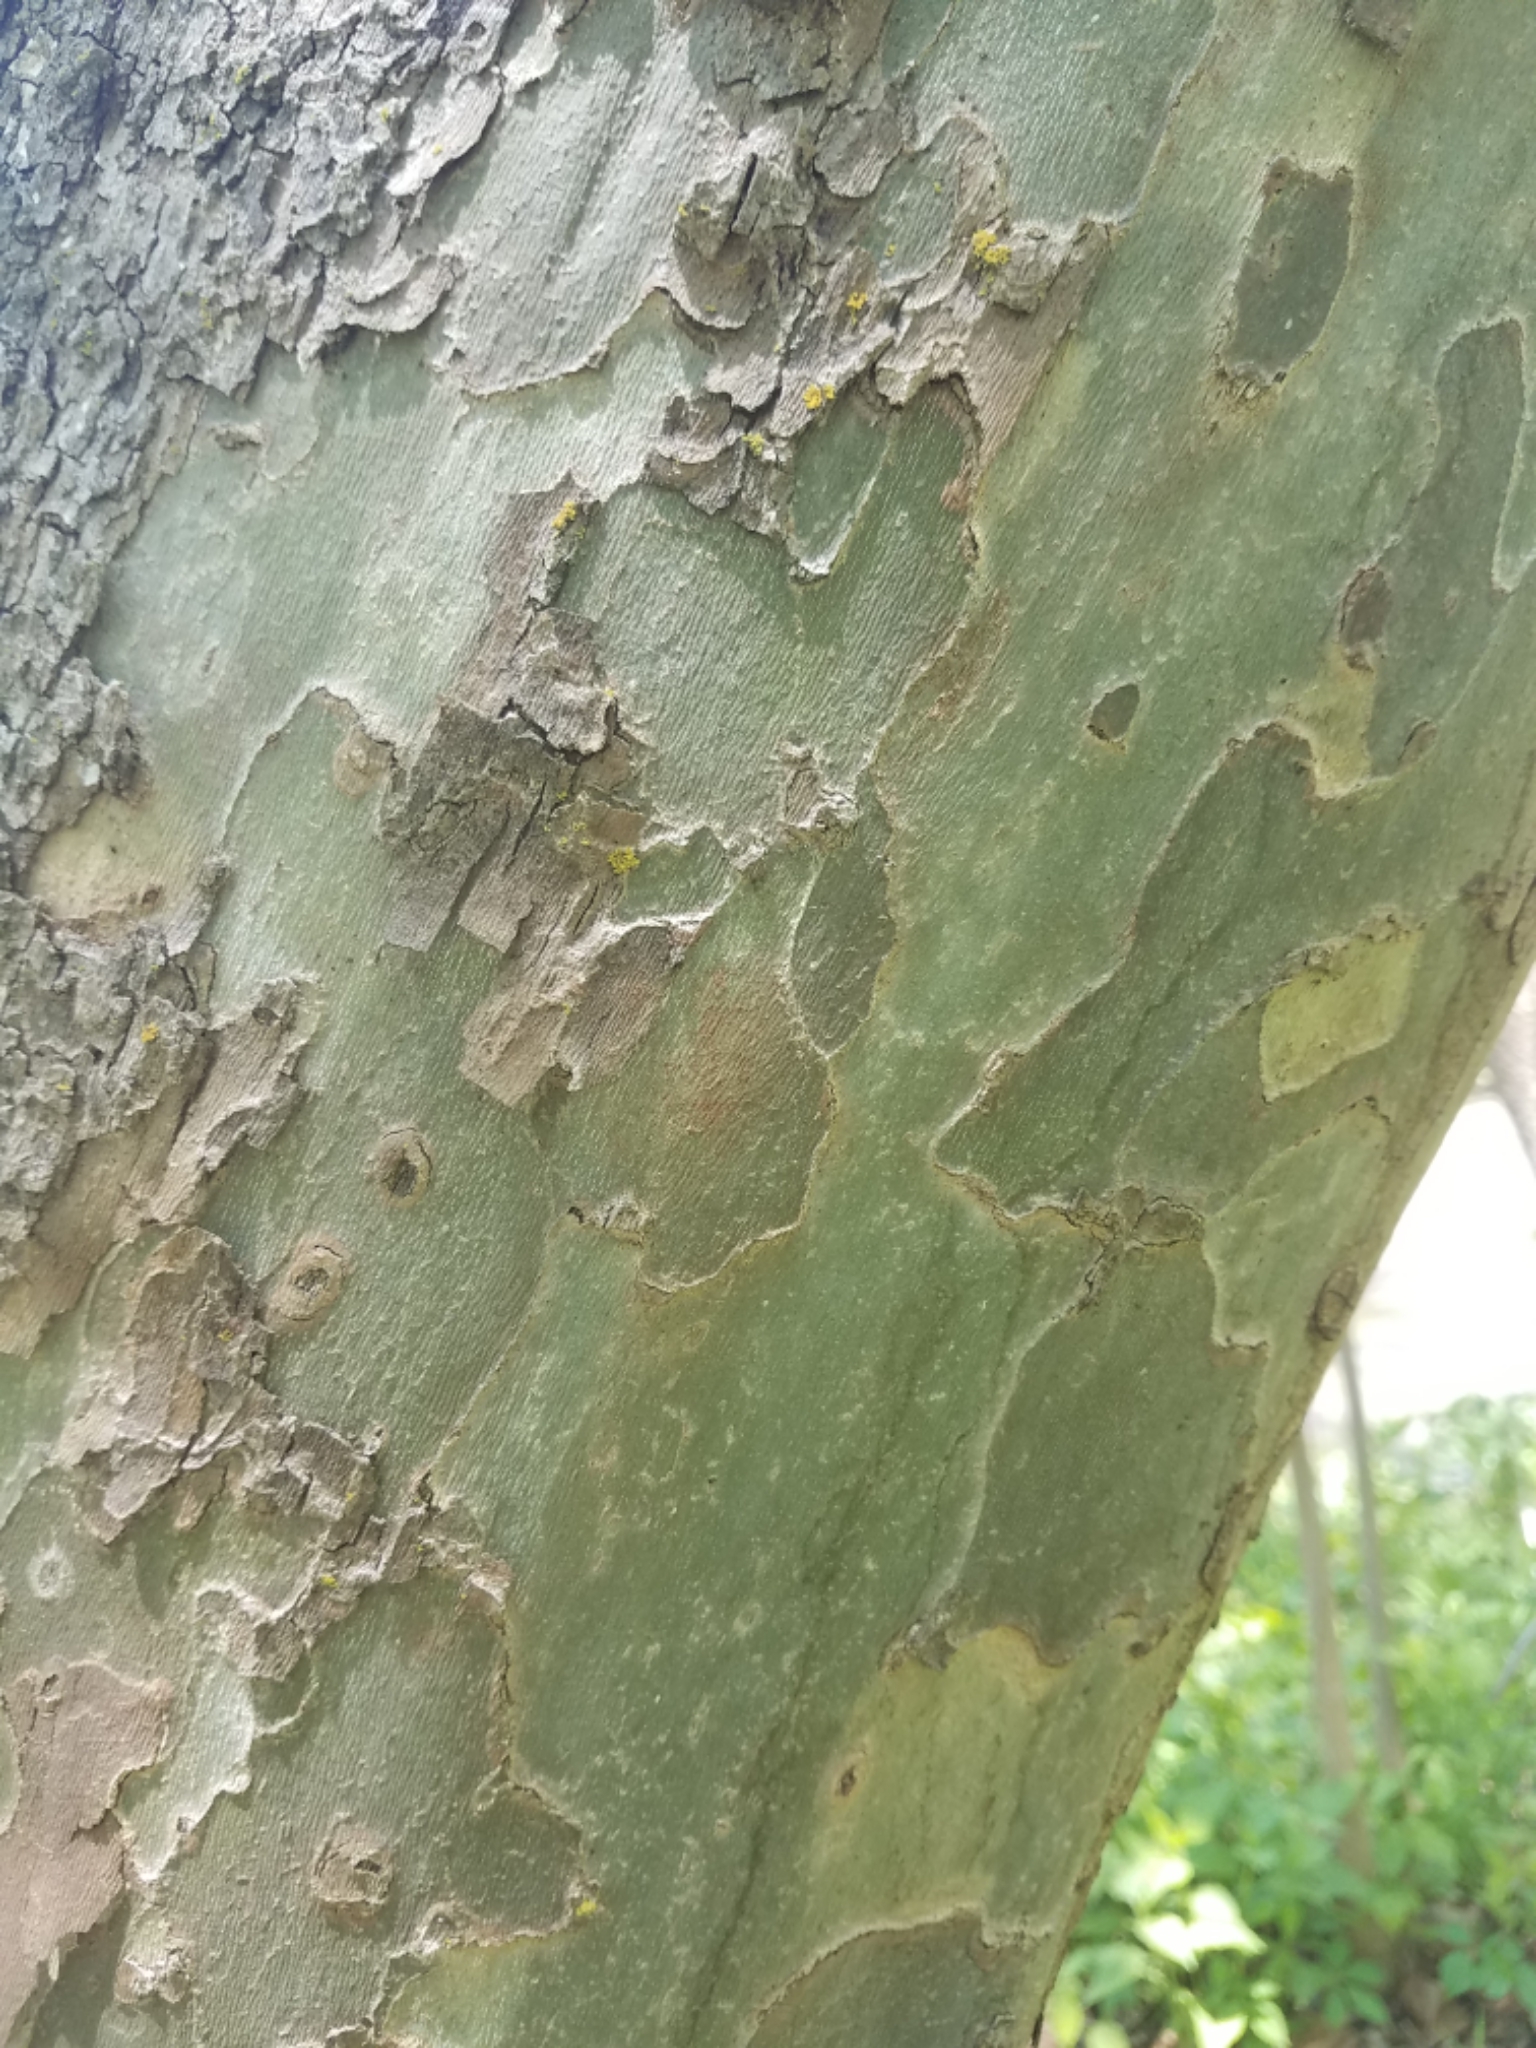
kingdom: Plantae
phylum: Tracheophyta
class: Magnoliopsida
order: Proteales
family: Platanaceae
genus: Platanus
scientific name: Platanus occidentalis
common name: American sycamore
